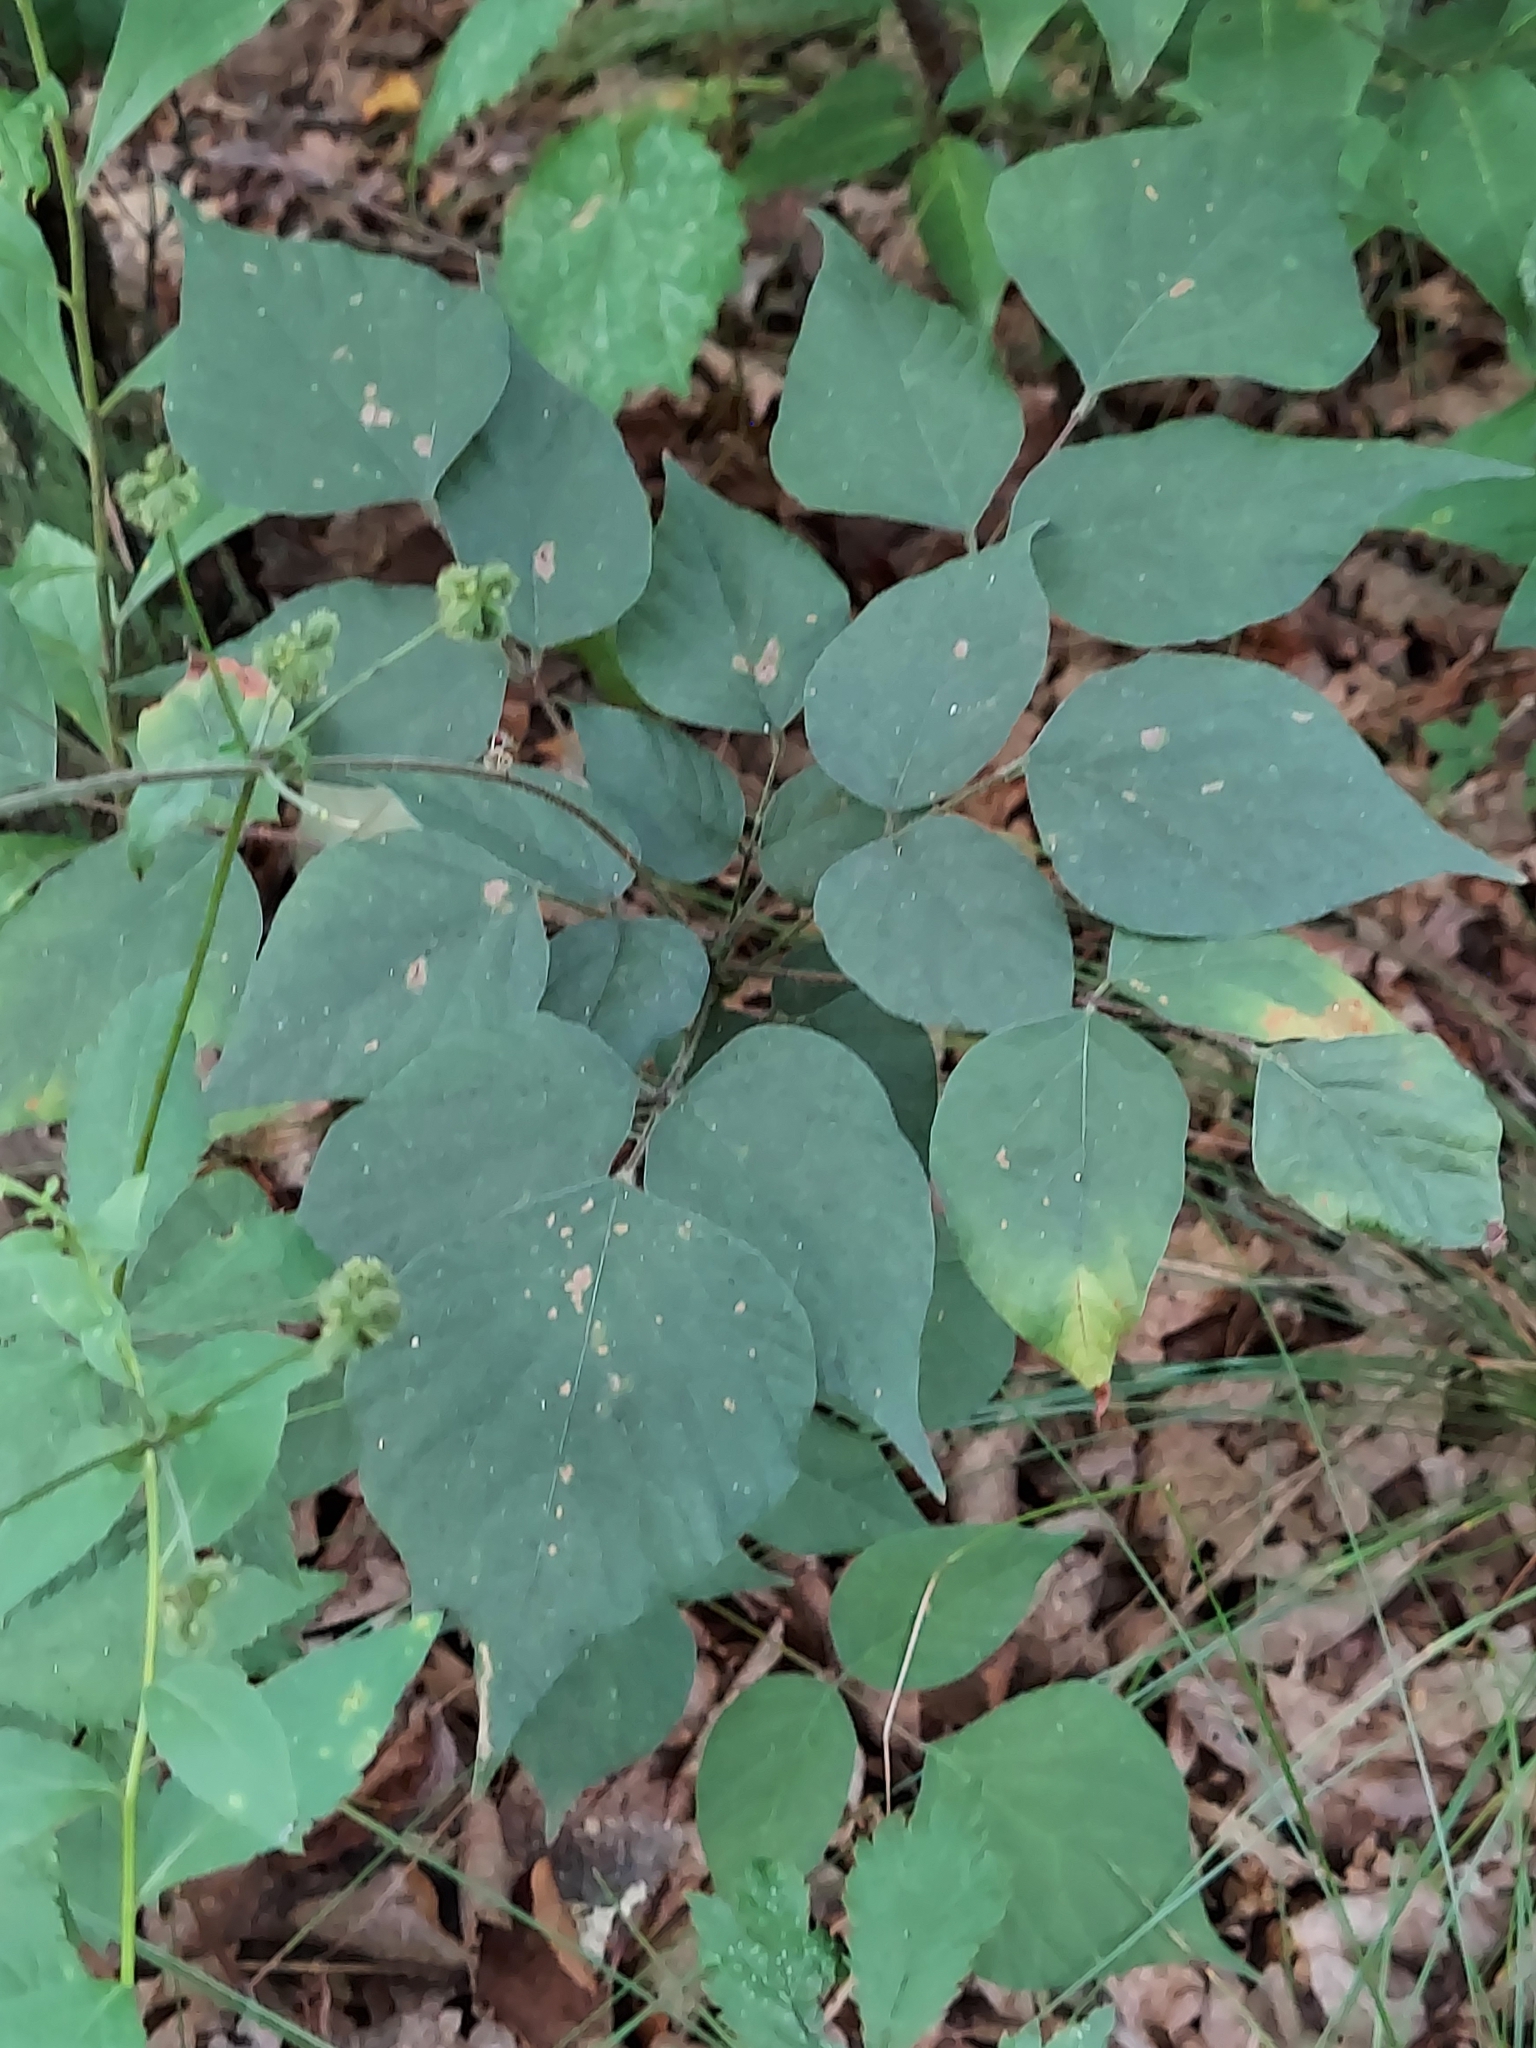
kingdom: Plantae
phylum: Tracheophyta
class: Magnoliopsida
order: Fabales
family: Fabaceae
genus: Hylodesmum
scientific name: Hylodesmum glutinosum
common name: Clustered-leaved tick-trefoil
